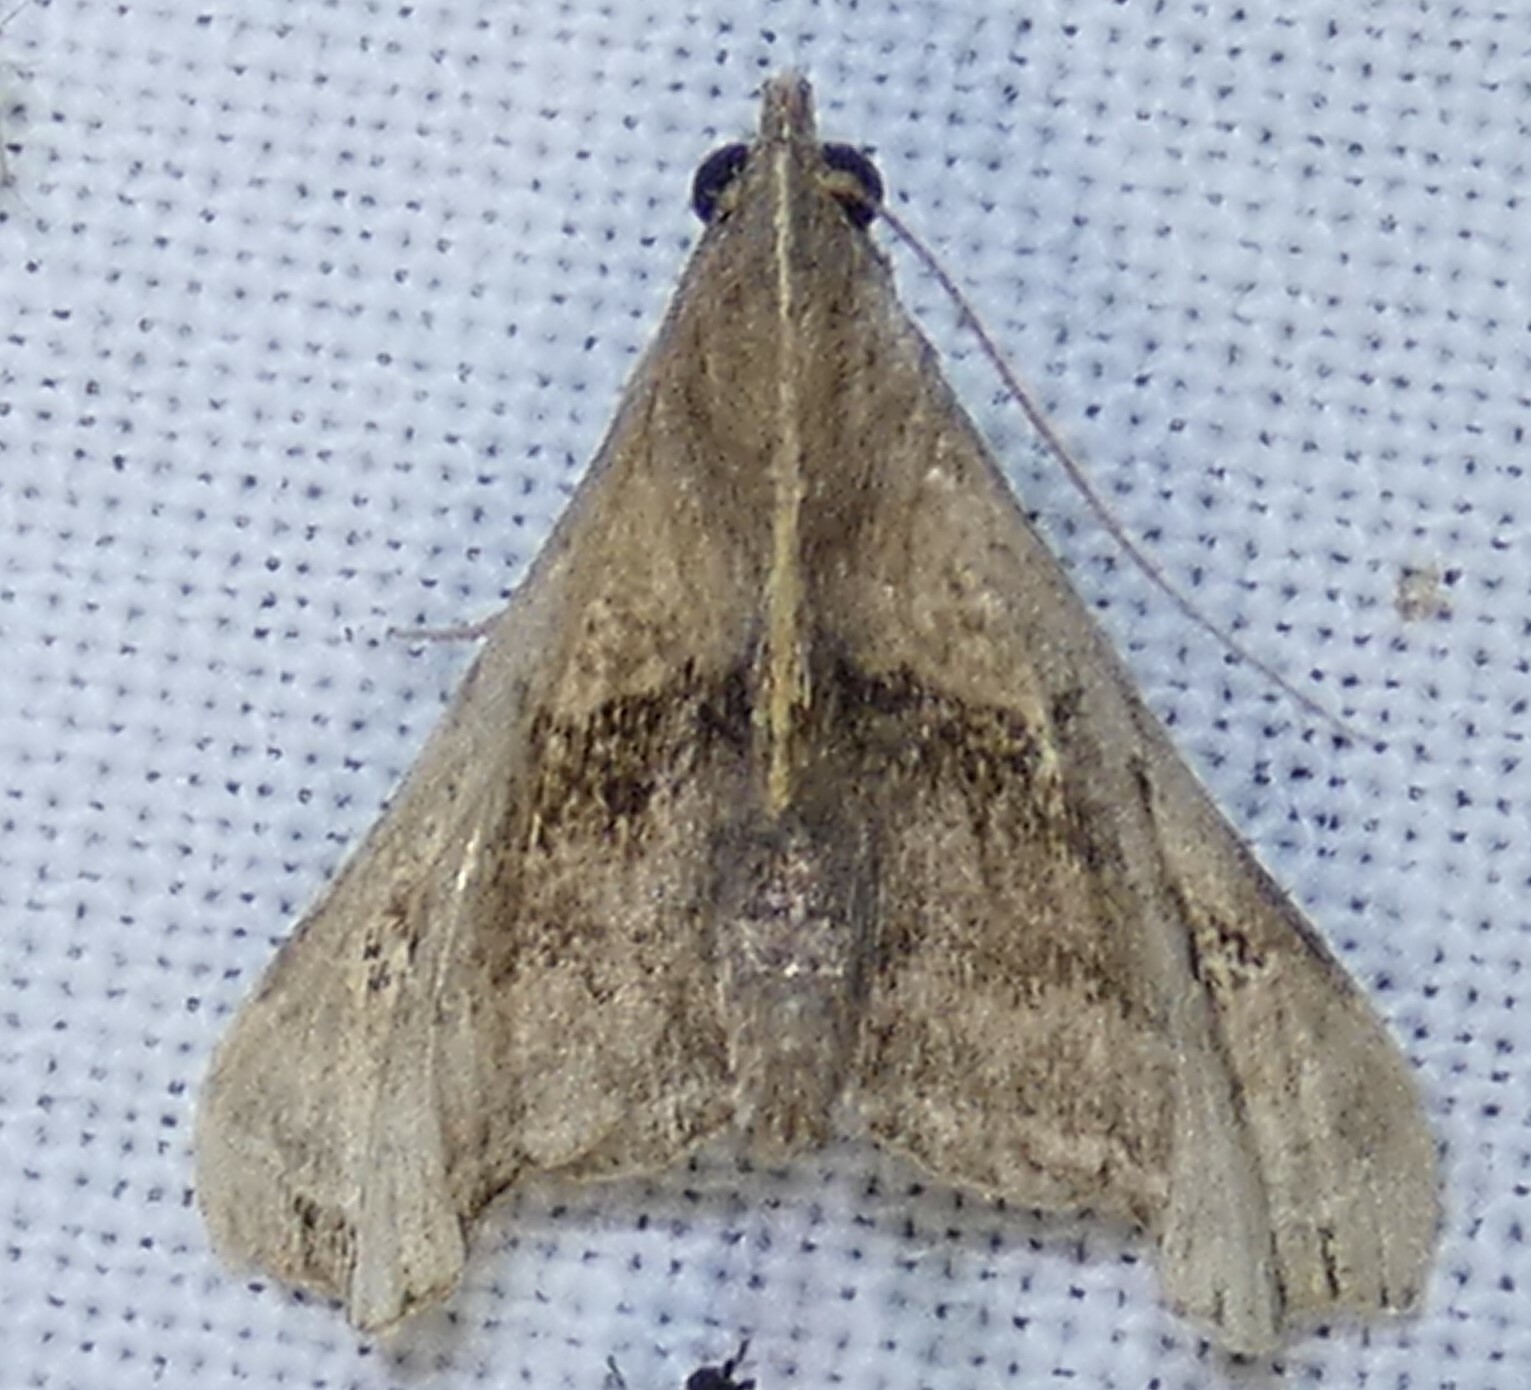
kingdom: Animalia
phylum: Arthropoda
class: Insecta
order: Lepidoptera
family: Erebidae
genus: Palthis
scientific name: Palthis asopialis
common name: Faint-spotted palthis moth
